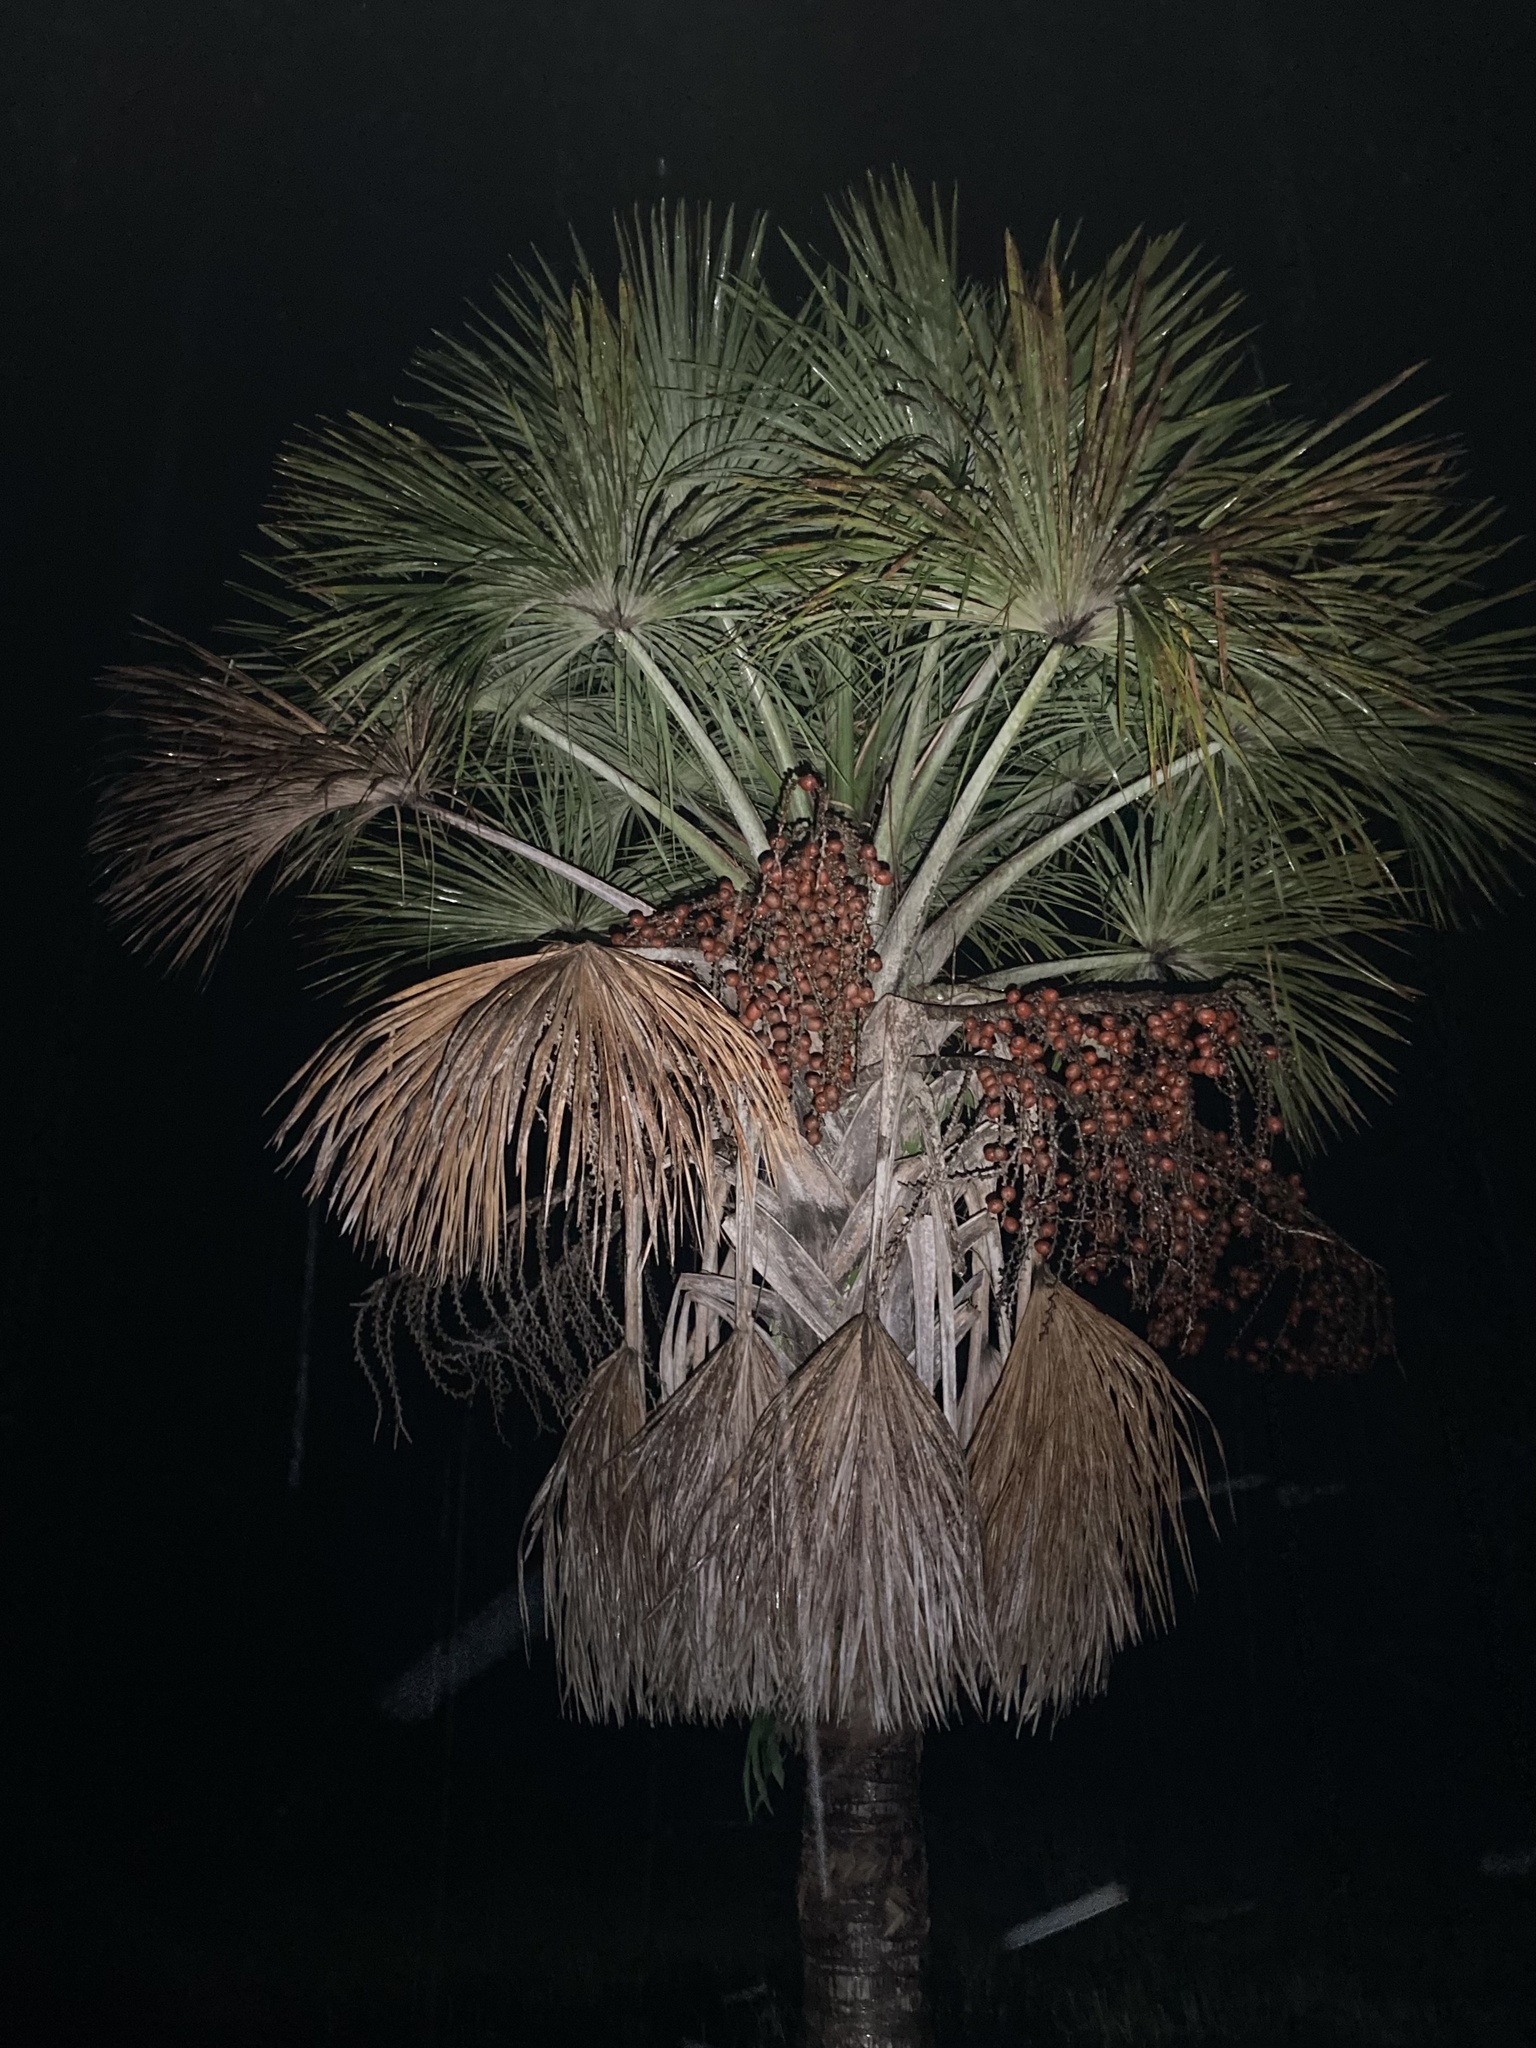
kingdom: Plantae
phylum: Tracheophyta
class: Liliopsida
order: Arecales
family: Arecaceae
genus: Mauritia
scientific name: Mauritia flexuosa
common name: Tree-of-life
